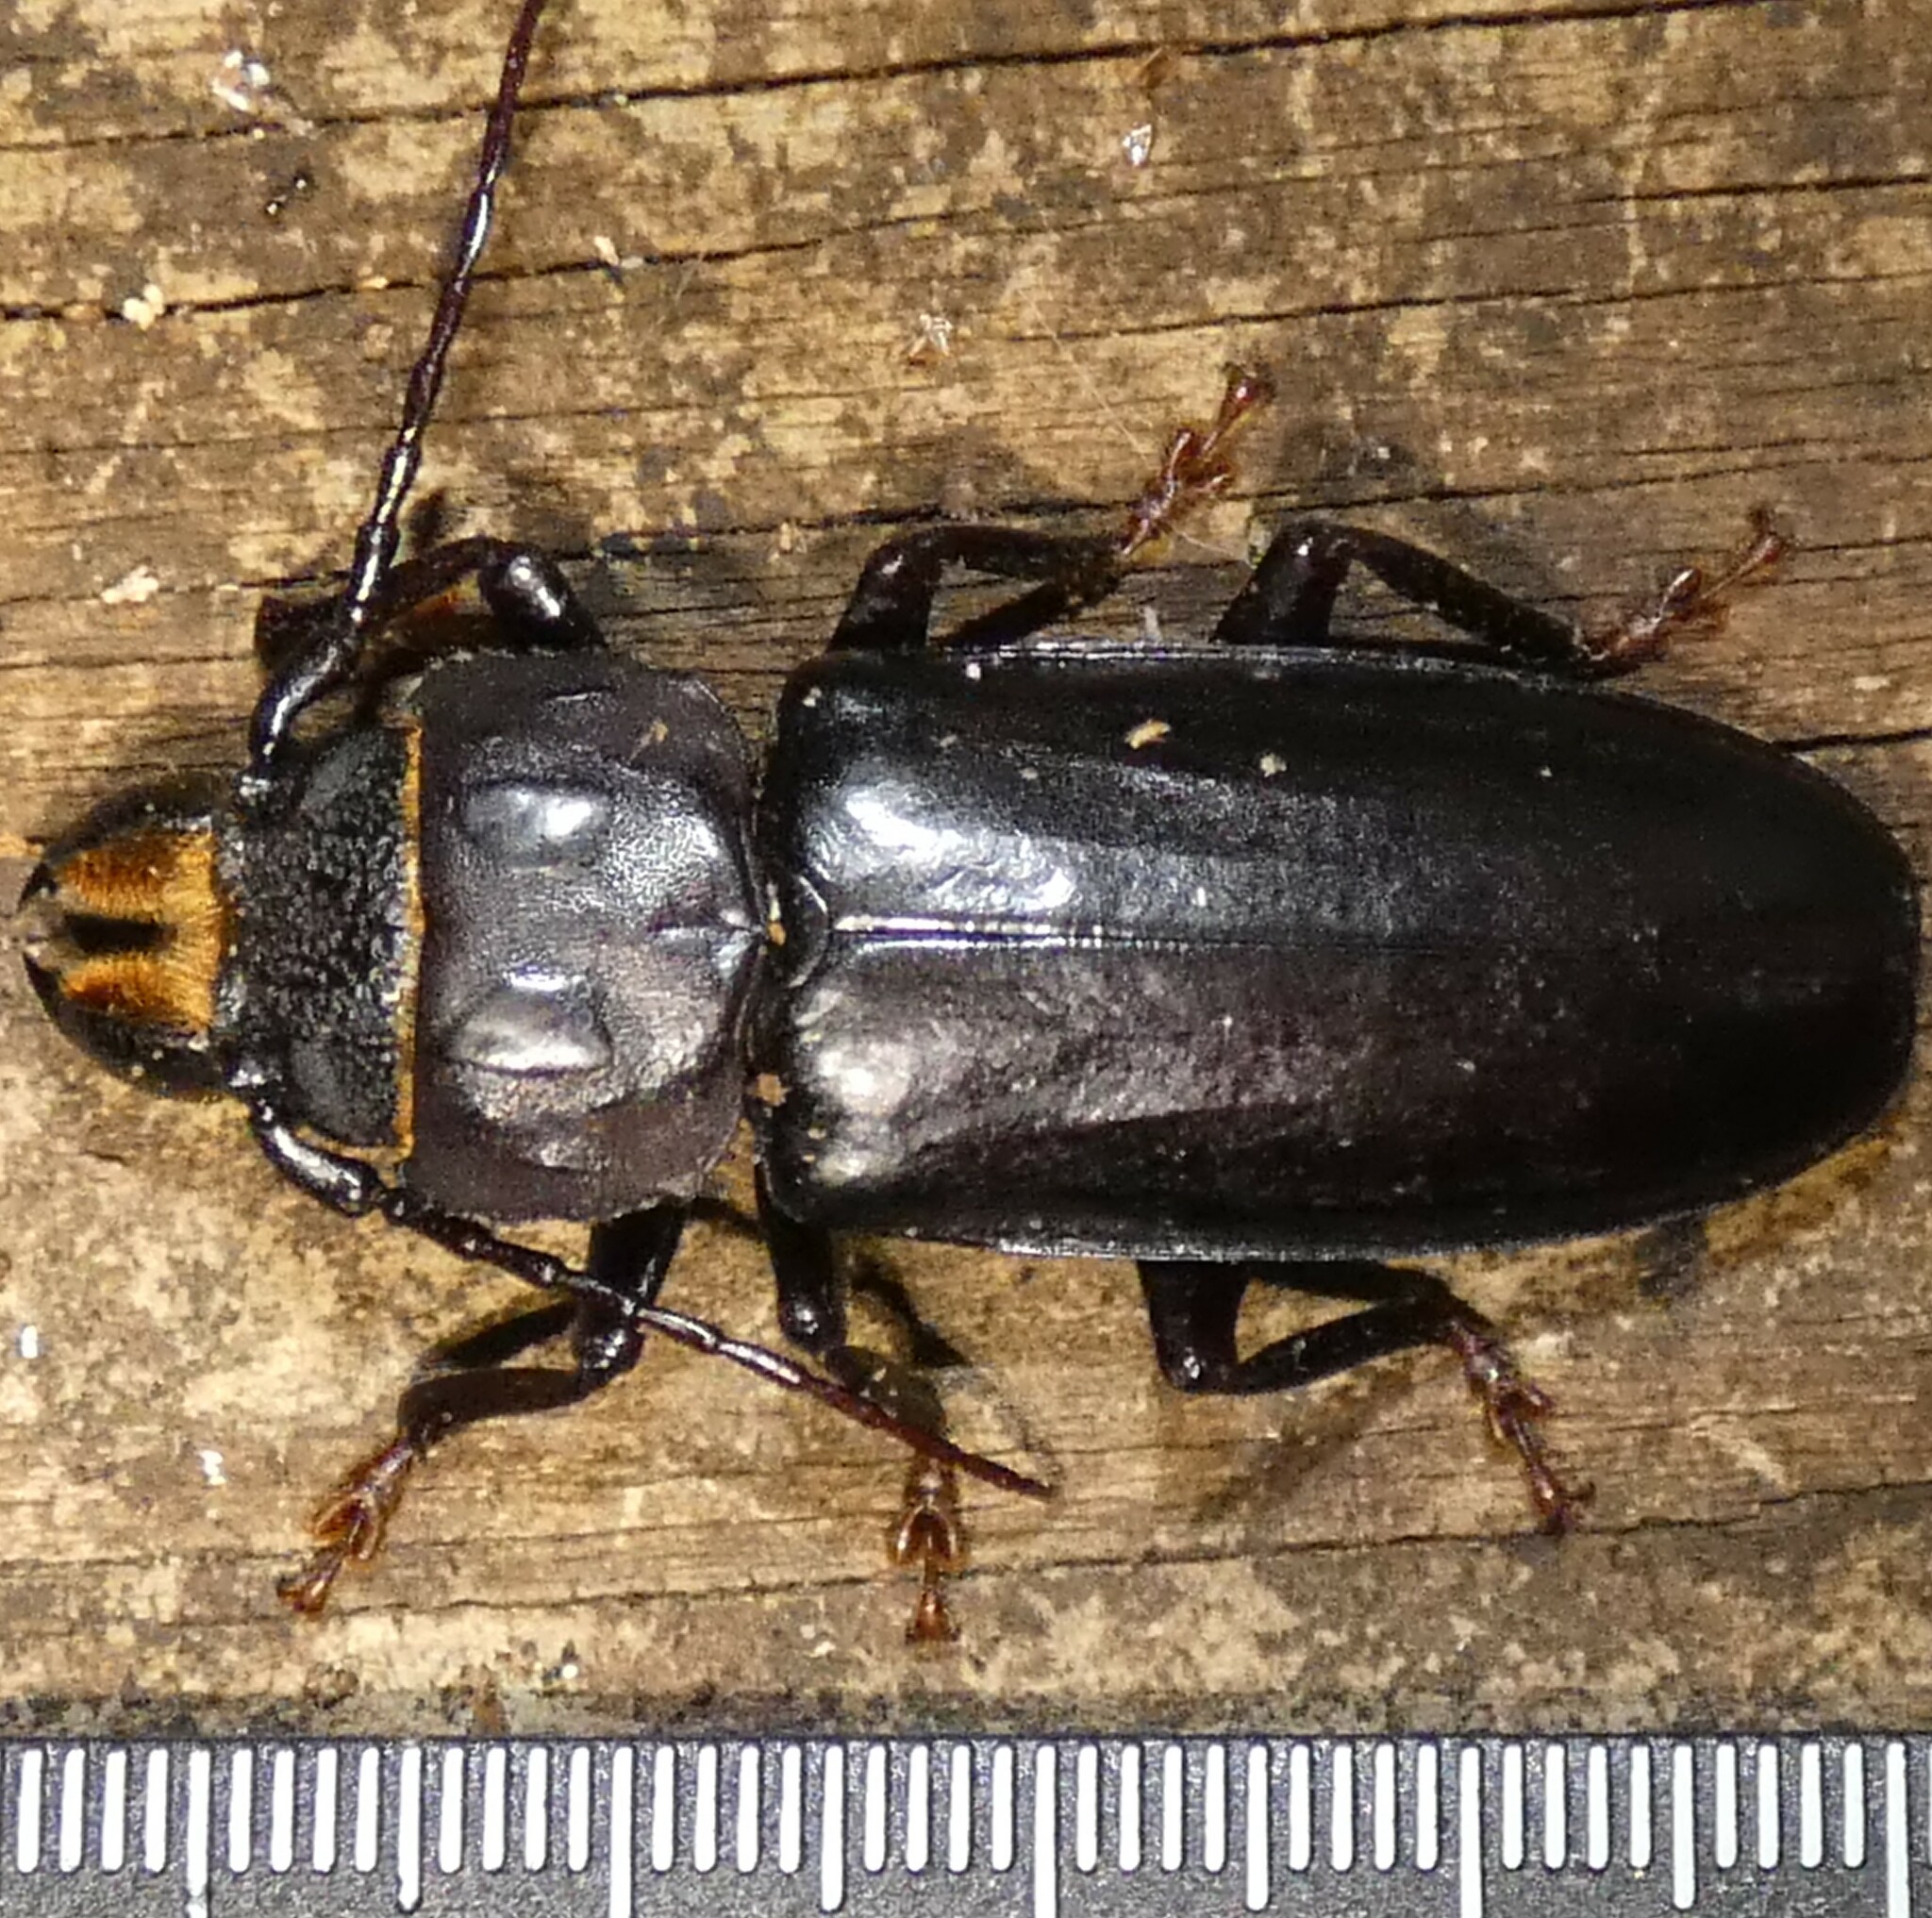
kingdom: Animalia
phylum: Arthropoda
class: Insecta
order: Coleoptera
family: Cerambycidae
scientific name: Cerambycidae
